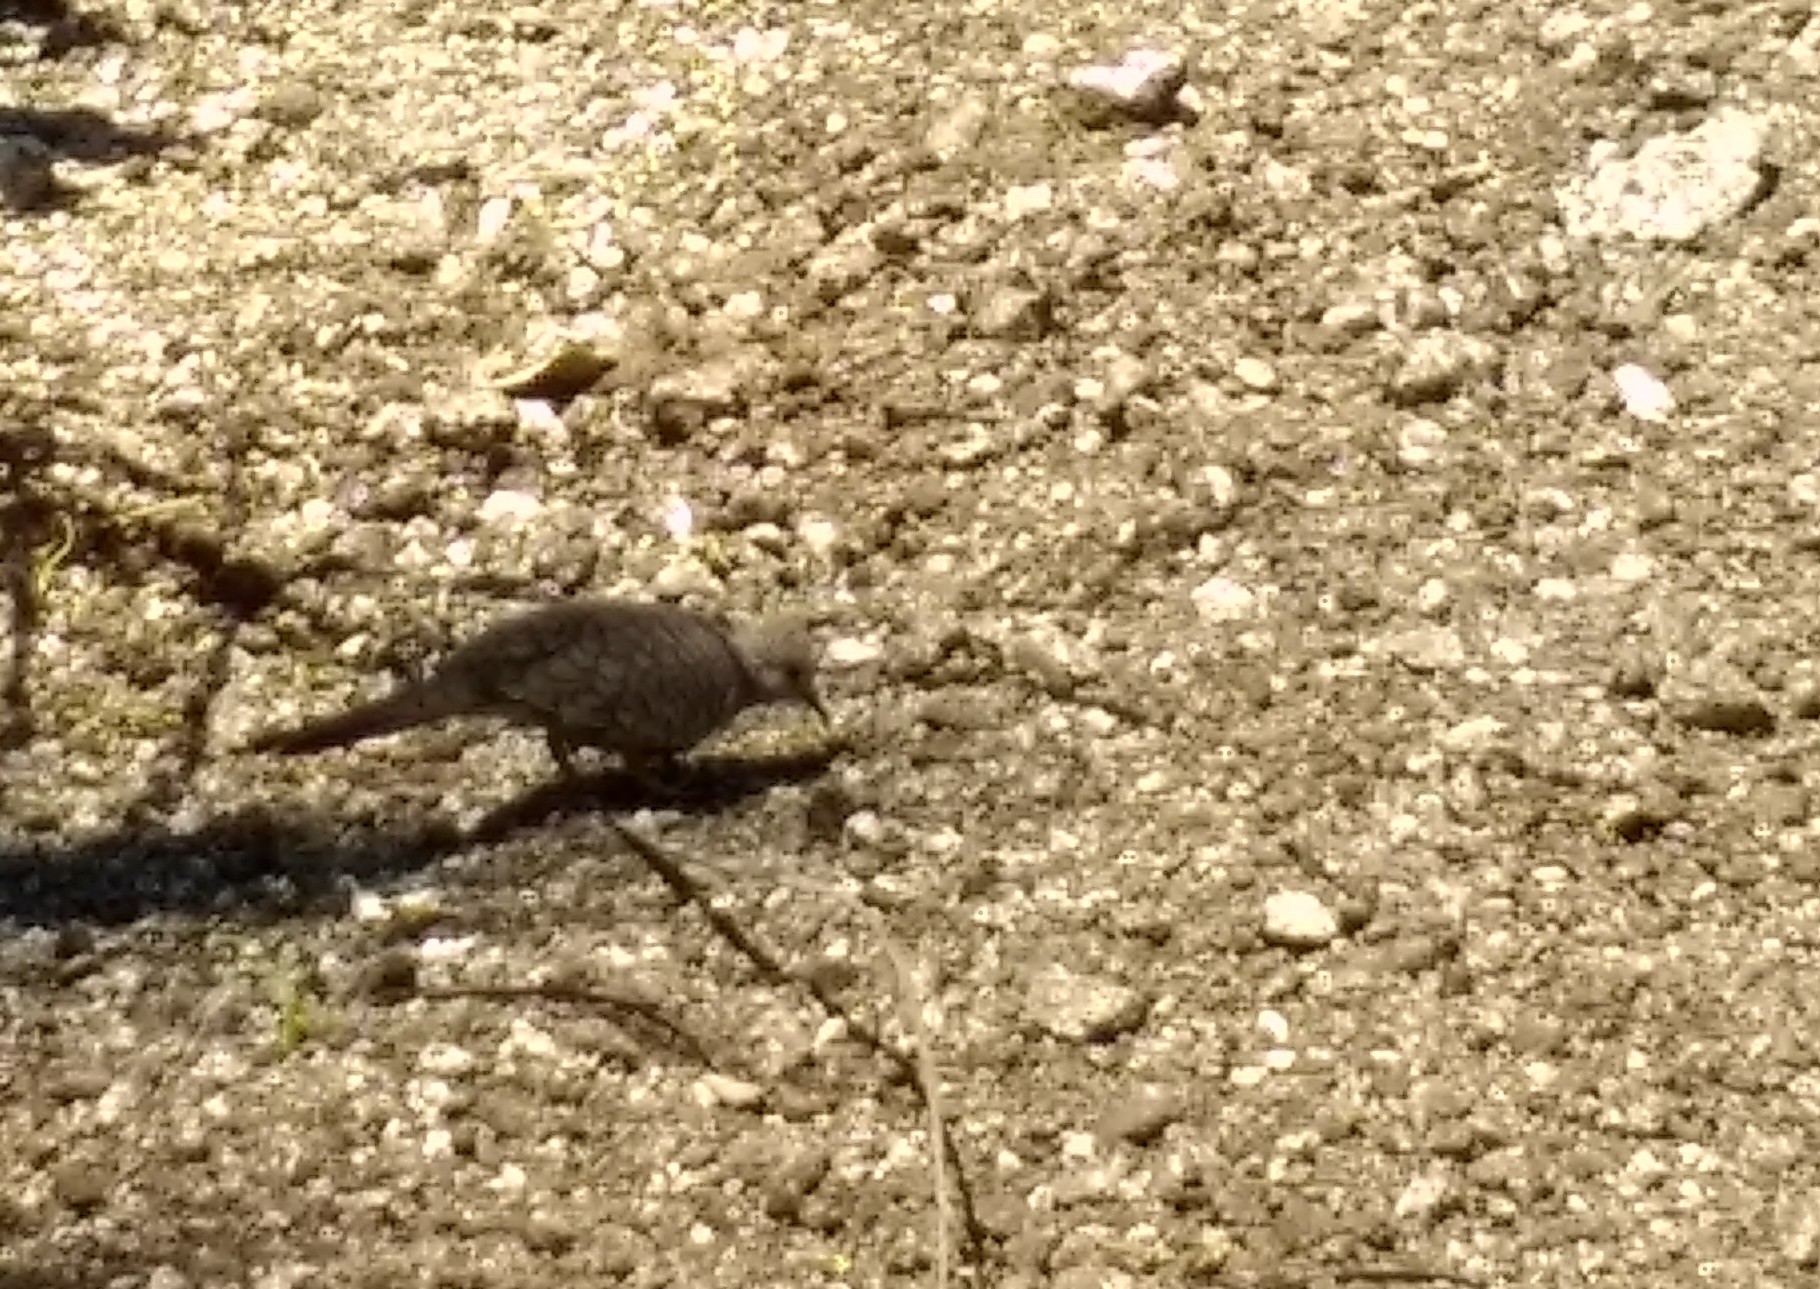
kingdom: Animalia
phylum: Chordata
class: Aves
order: Columbiformes
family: Columbidae
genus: Columbina
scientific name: Columbina inca
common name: Inca dove
